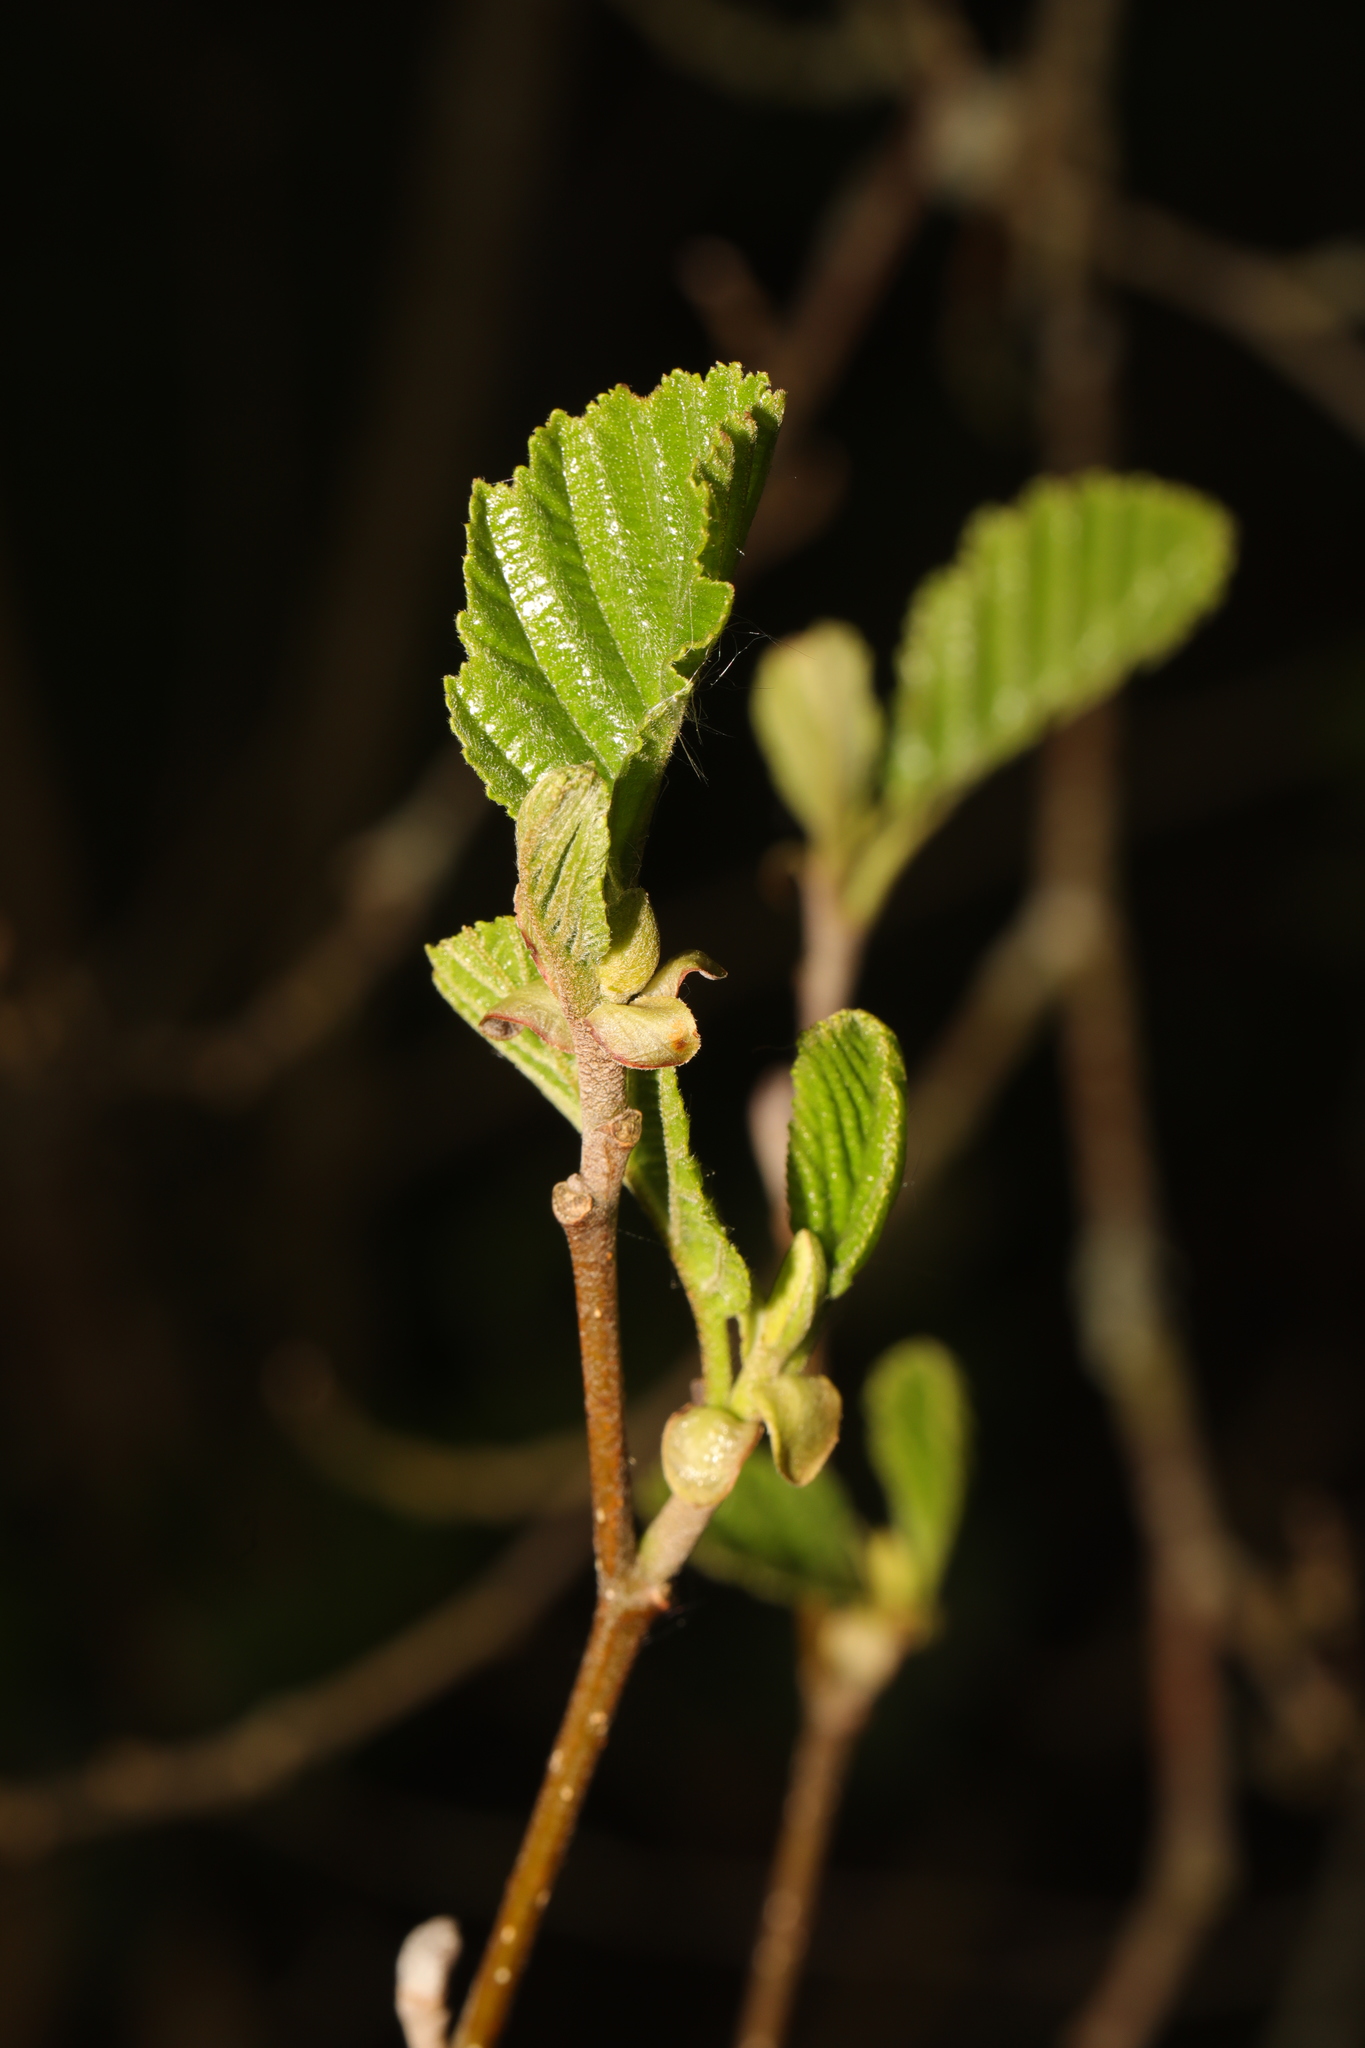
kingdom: Plantae
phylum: Tracheophyta
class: Magnoliopsida
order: Fagales
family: Betulaceae
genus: Alnus
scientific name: Alnus glutinosa
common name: Black alder
